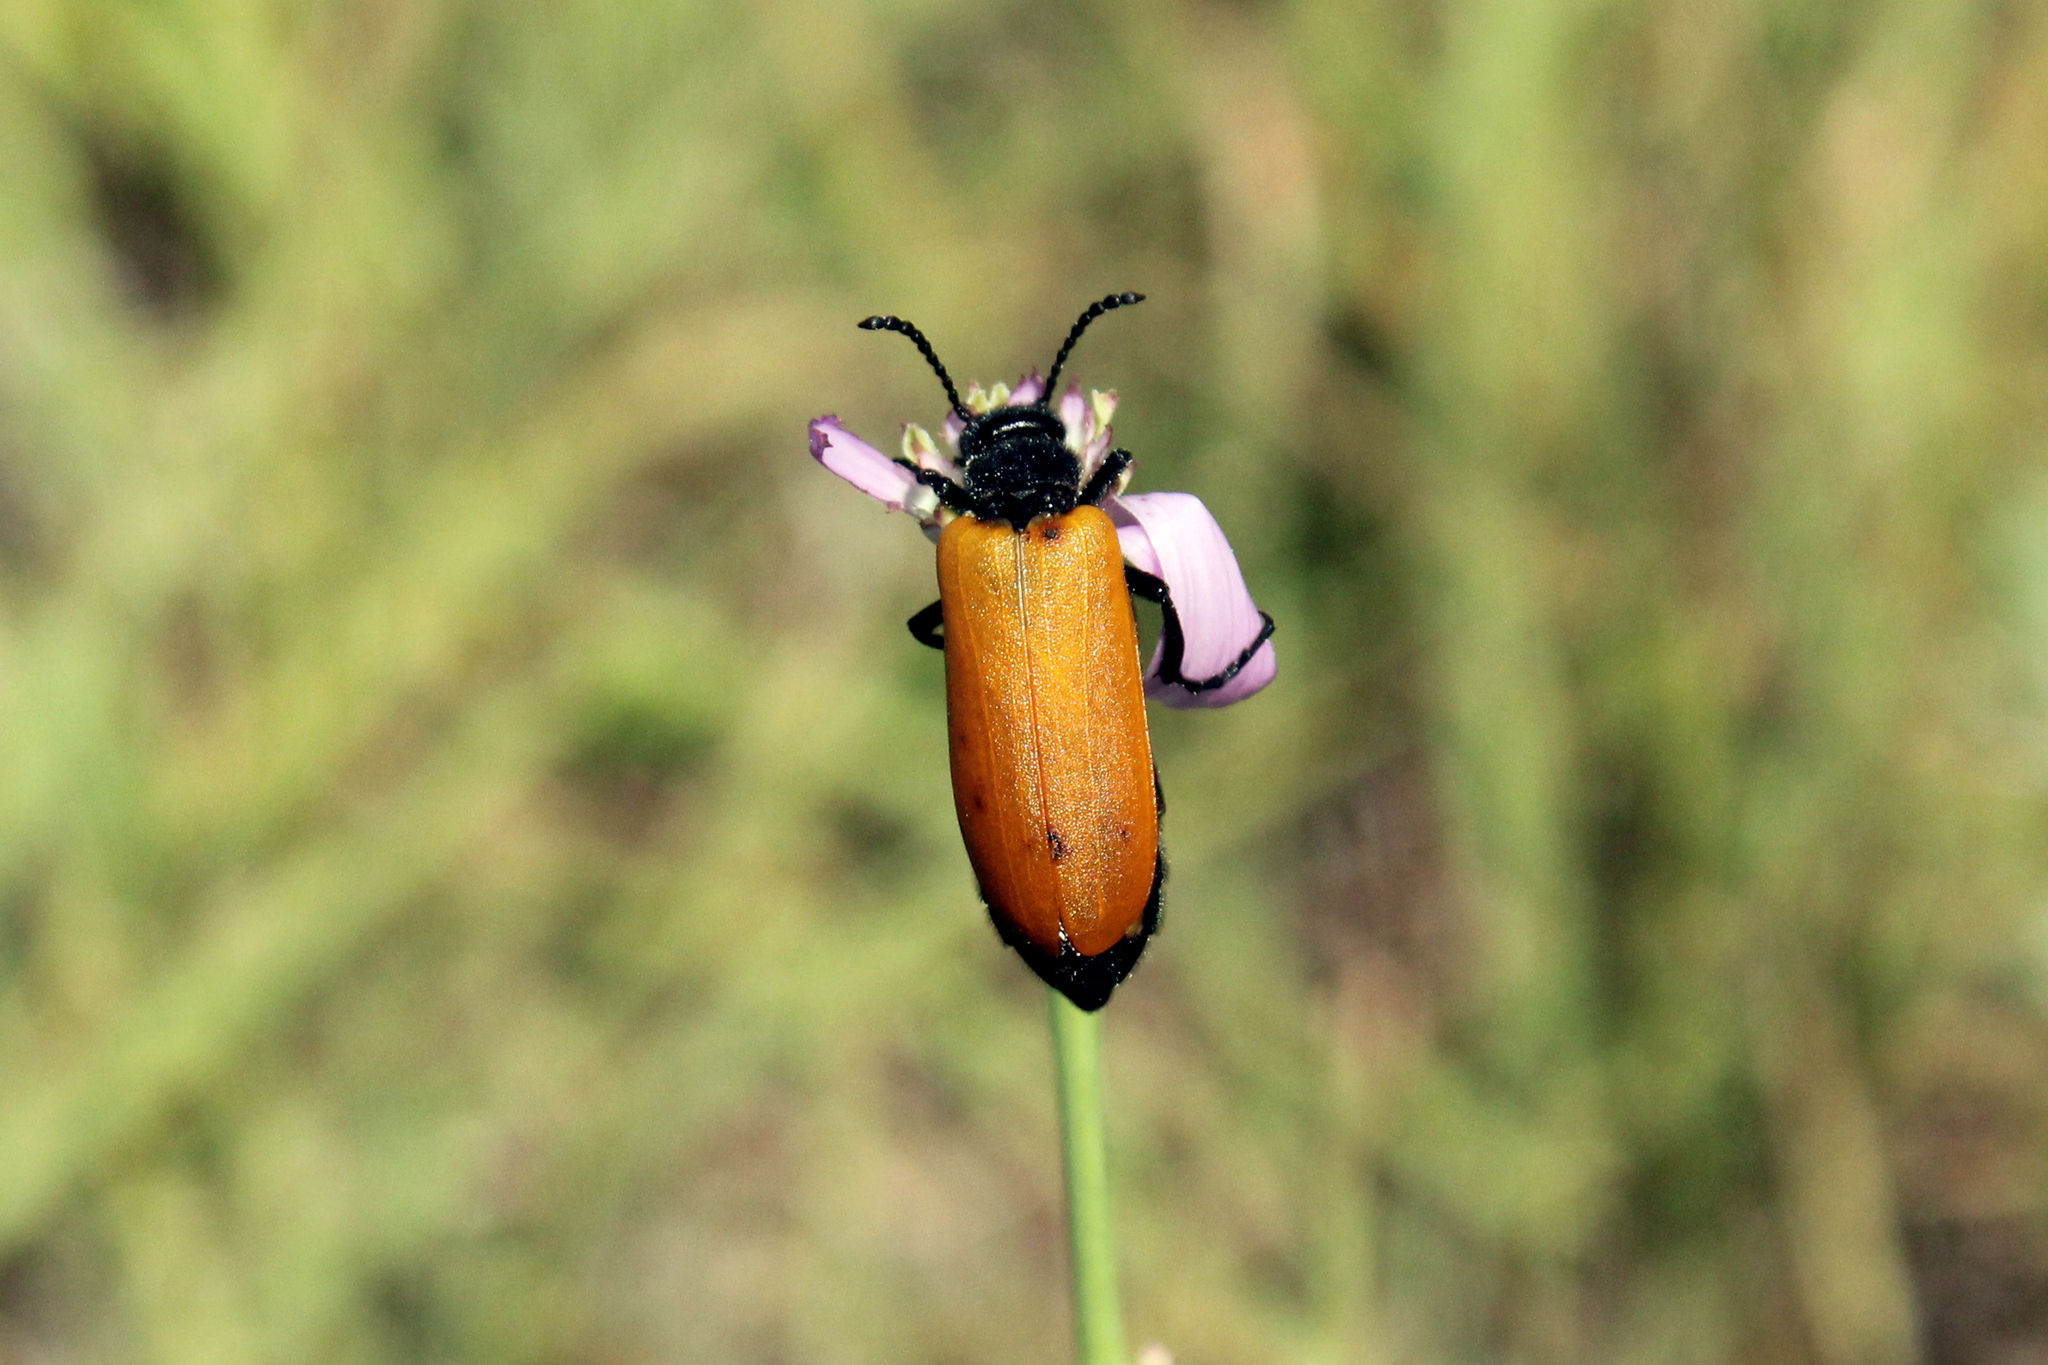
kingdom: Animalia
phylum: Arthropoda
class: Insecta
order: Coleoptera
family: Meloidae
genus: Lytta
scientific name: Lytta fulvipennis
